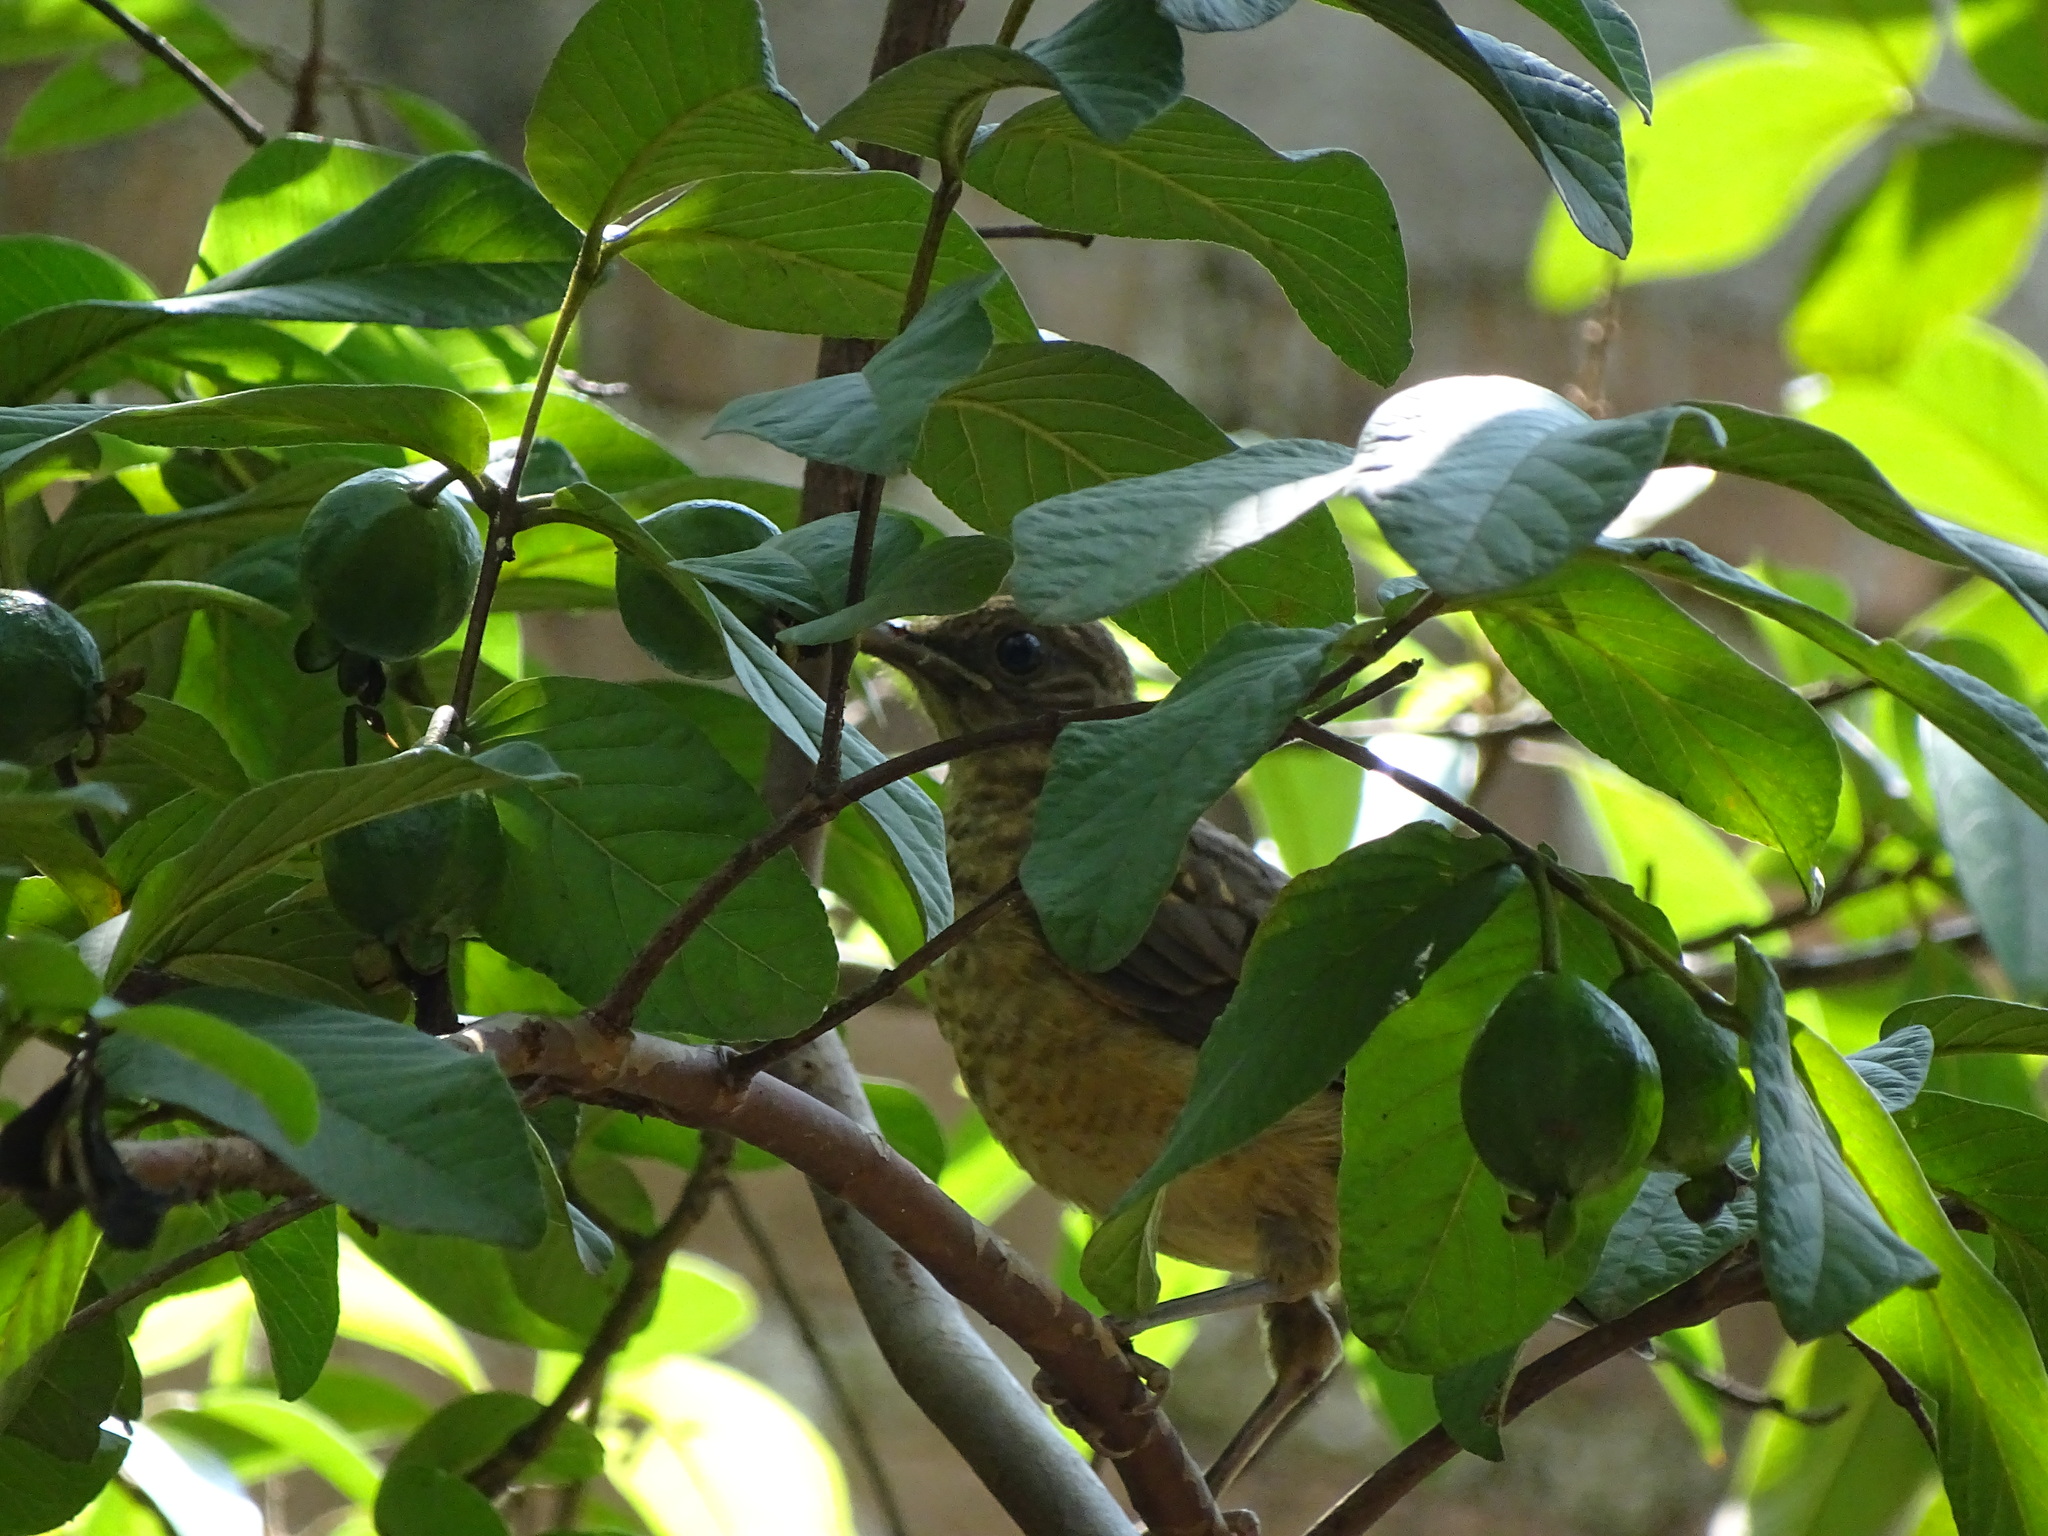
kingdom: Animalia
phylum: Chordata
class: Aves
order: Passeriformes
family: Turdidae
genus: Turdus
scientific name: Turdus grayi
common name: Clay-colored thrush
